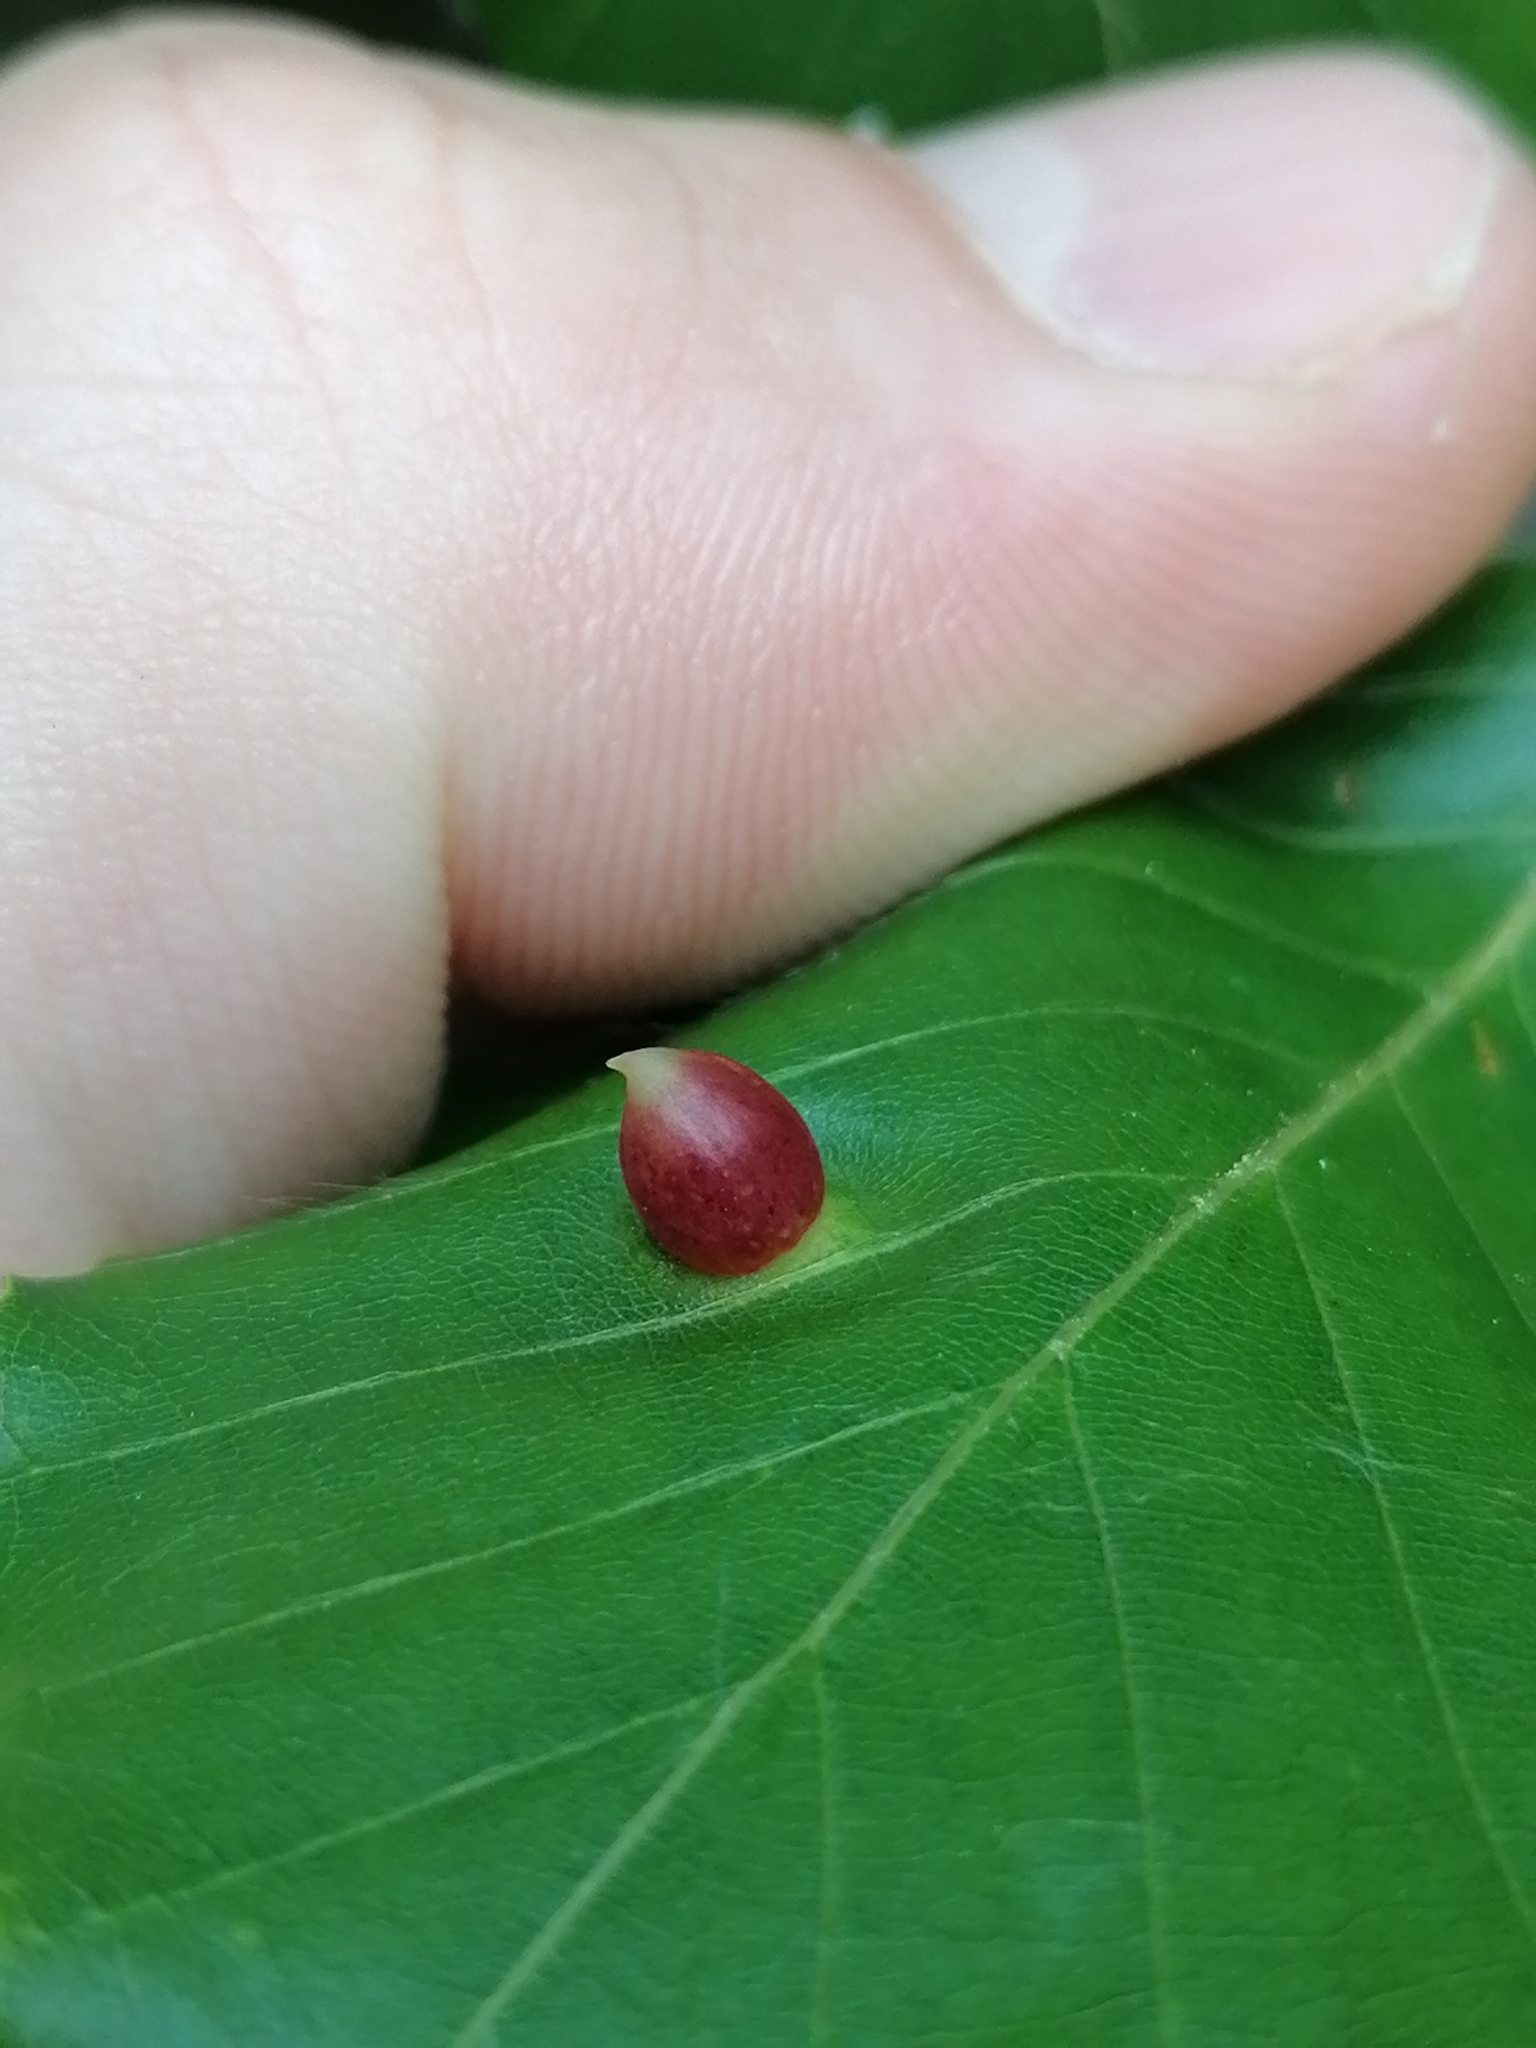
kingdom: Animalia
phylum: Arthropoda
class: Insecta
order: Diptera
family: Cecidomyiidae
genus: Mikiola
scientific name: Mikiola fagi
